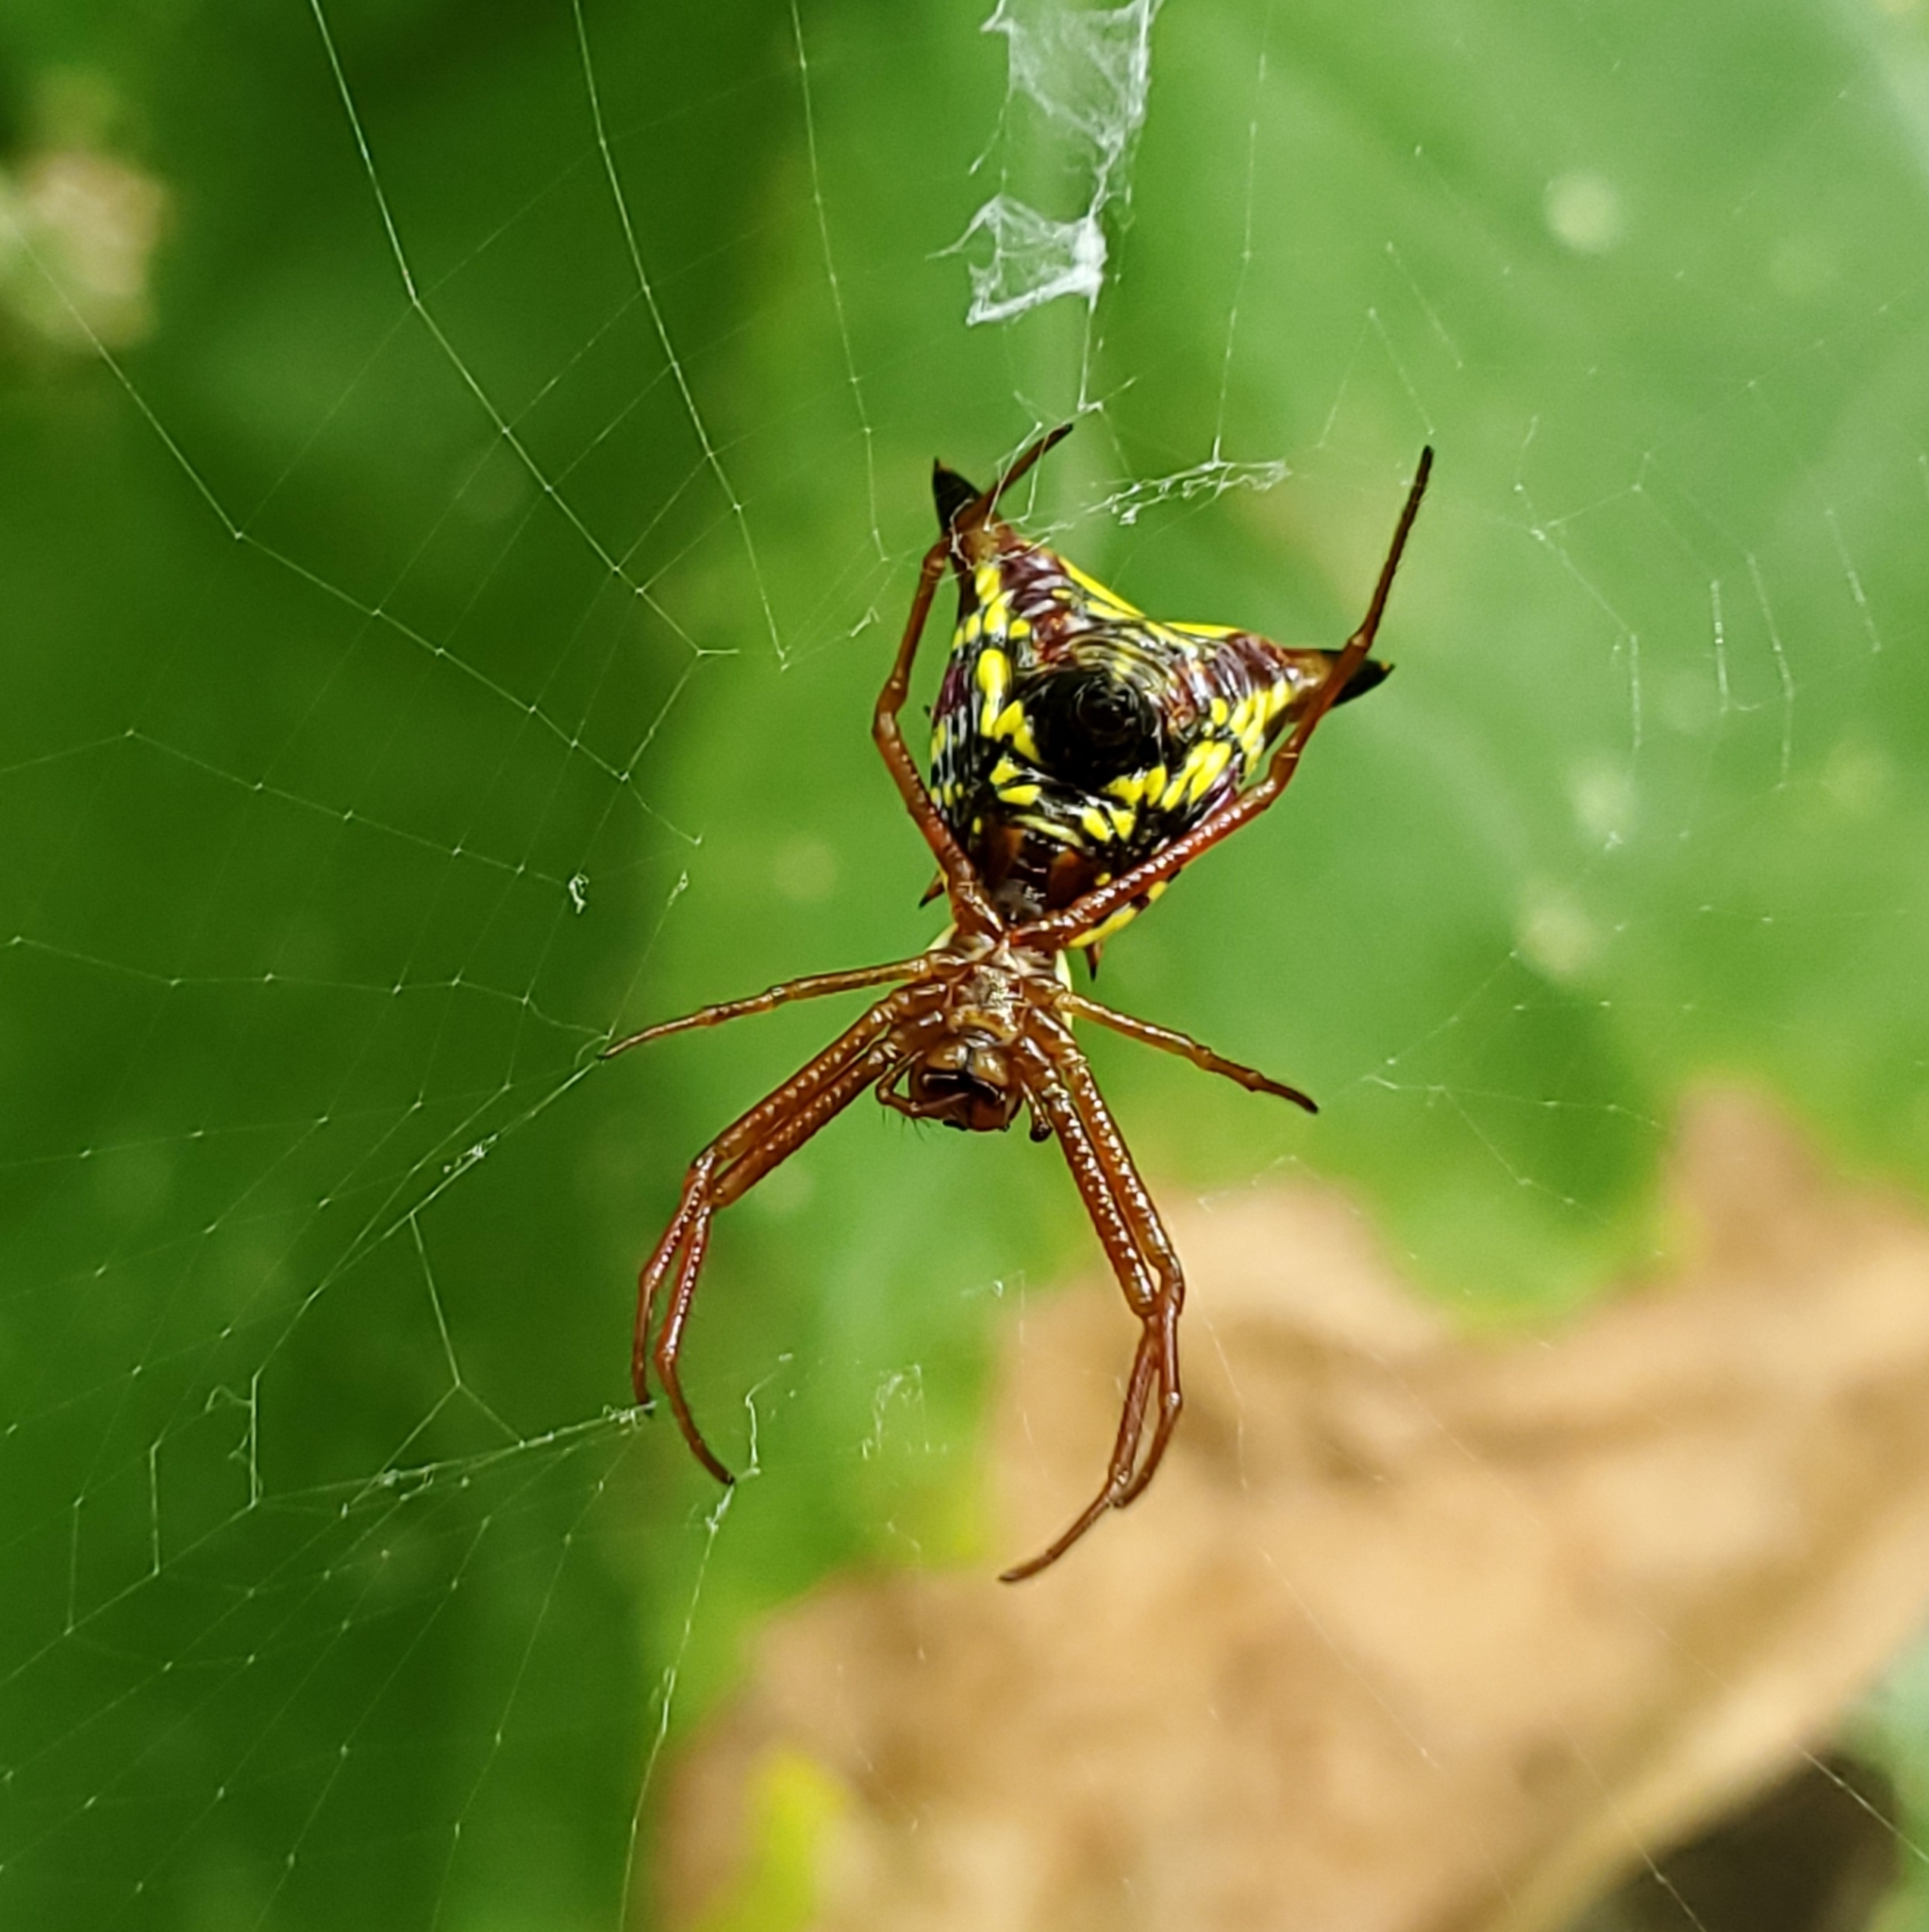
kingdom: Animalia
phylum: Arthropoda
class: Arachnida
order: Araneae
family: Araneidae
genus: Micrathena
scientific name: Micrathena sagittata
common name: Orb weavers
